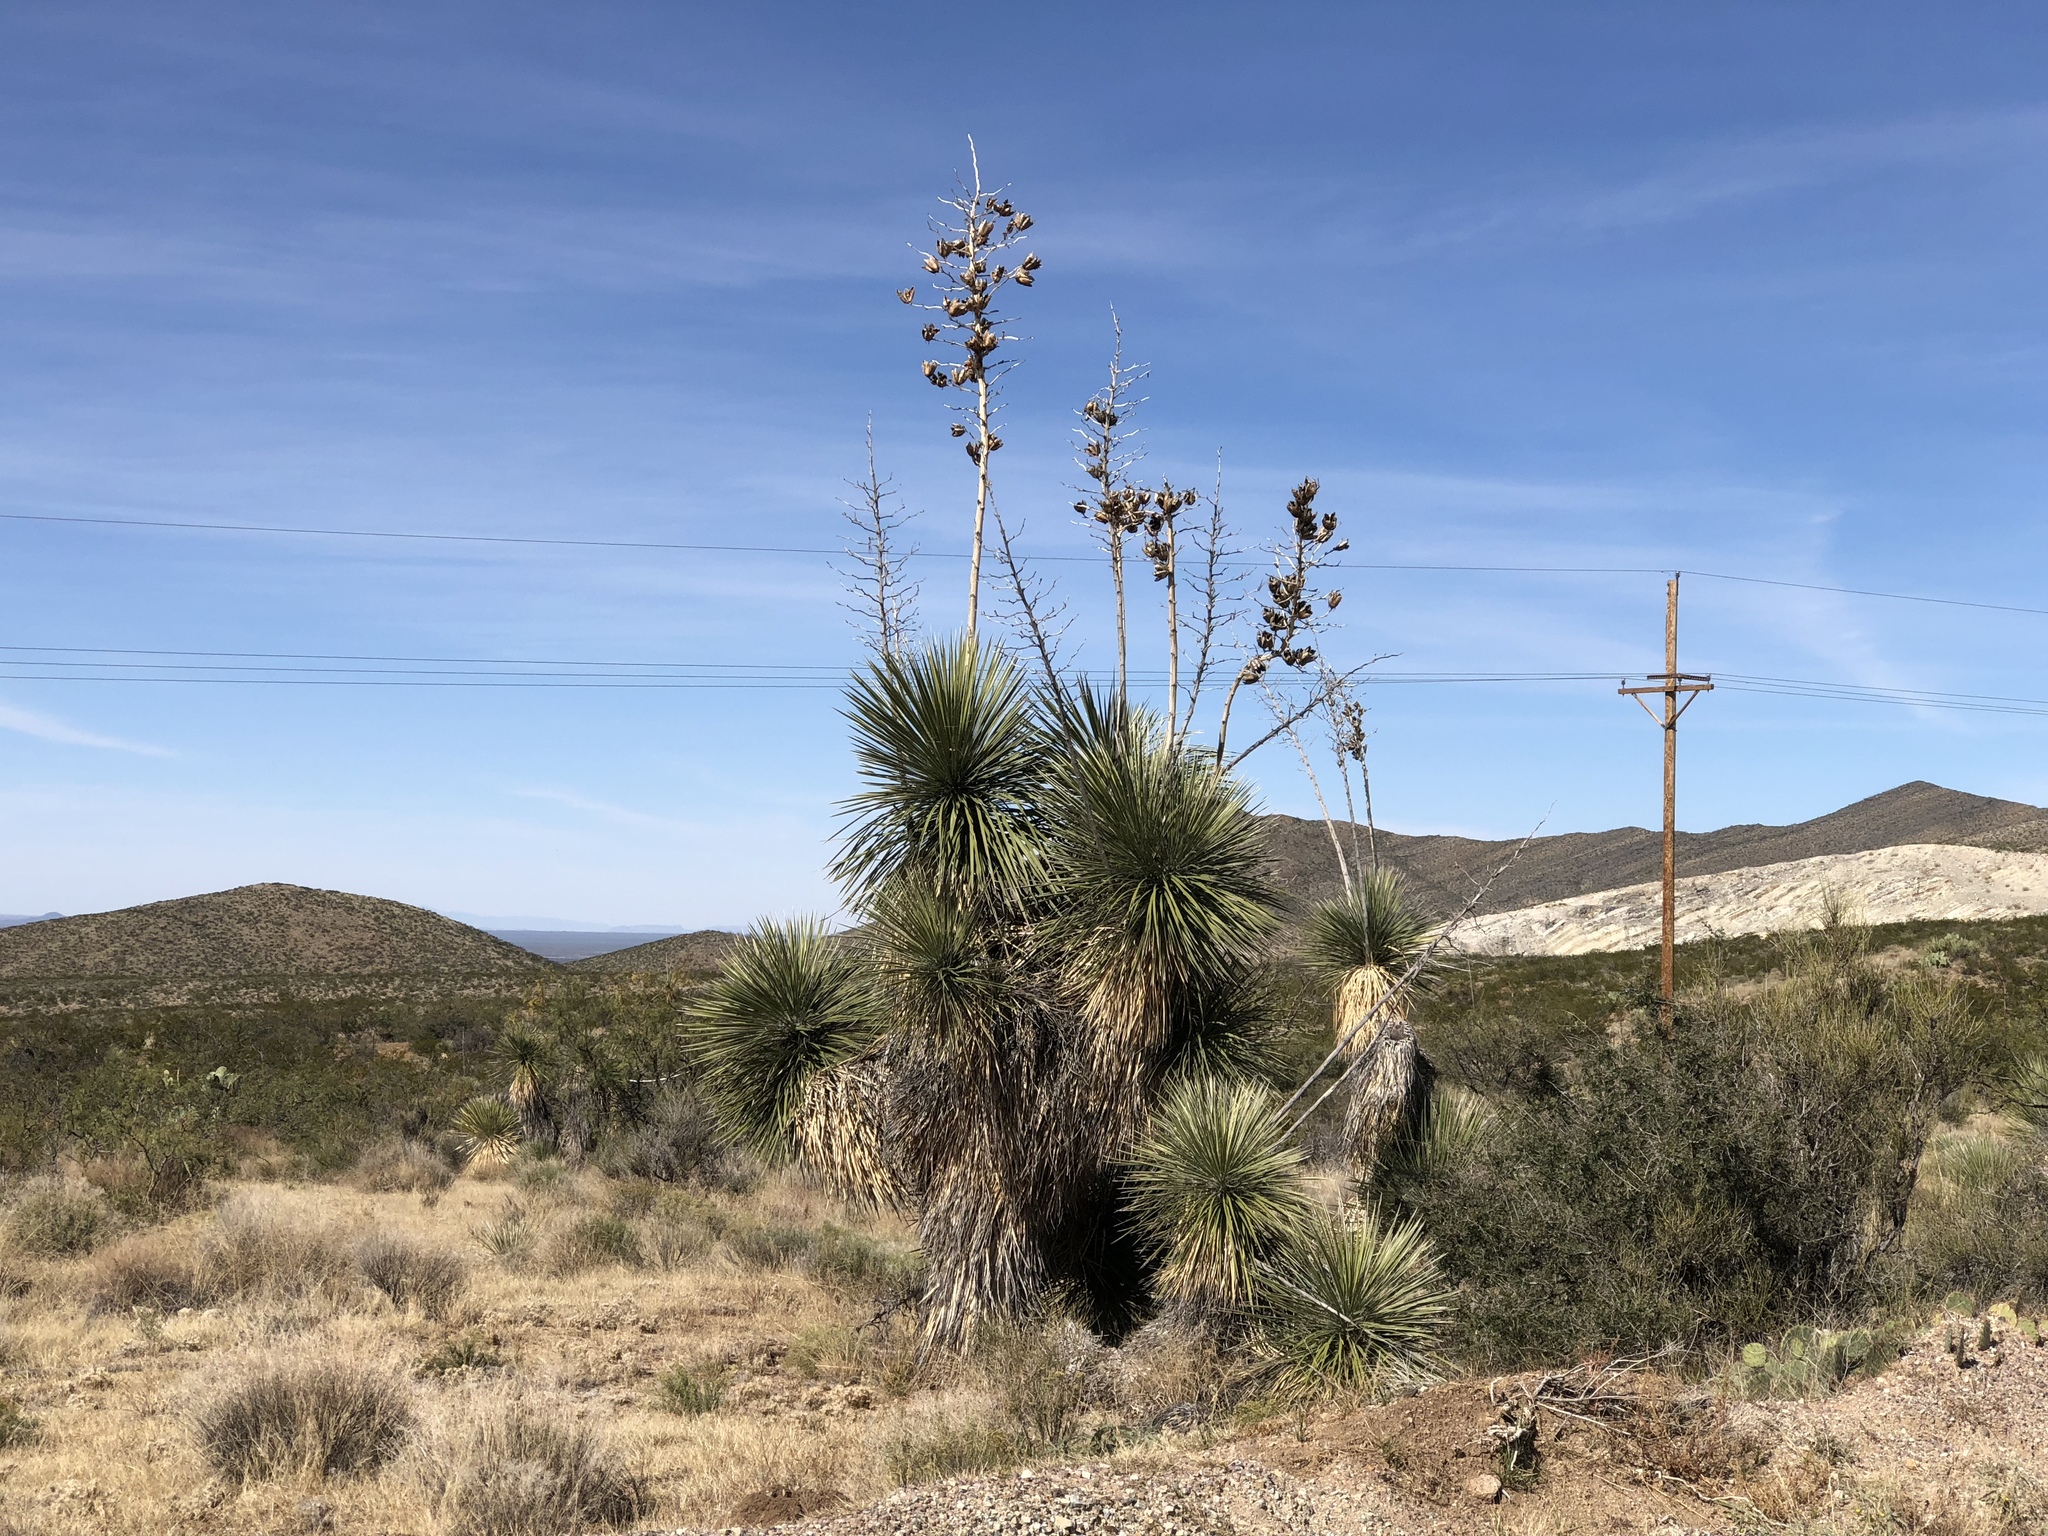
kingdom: Plantae
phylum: Tracheophyta
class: Liliopsida
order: Asparagales
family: Asparagaceae
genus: Yucca
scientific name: Yucca elata
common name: Palmella
